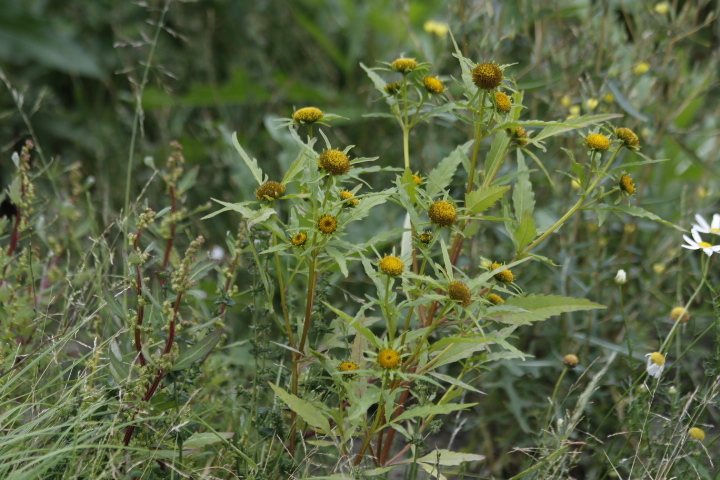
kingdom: Plantae
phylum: Tracheophyta
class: Magnoliopsida
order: Asterales
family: Asteraceae
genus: Bidens
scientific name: Bidens radiata
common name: Radiating bur-marigold
